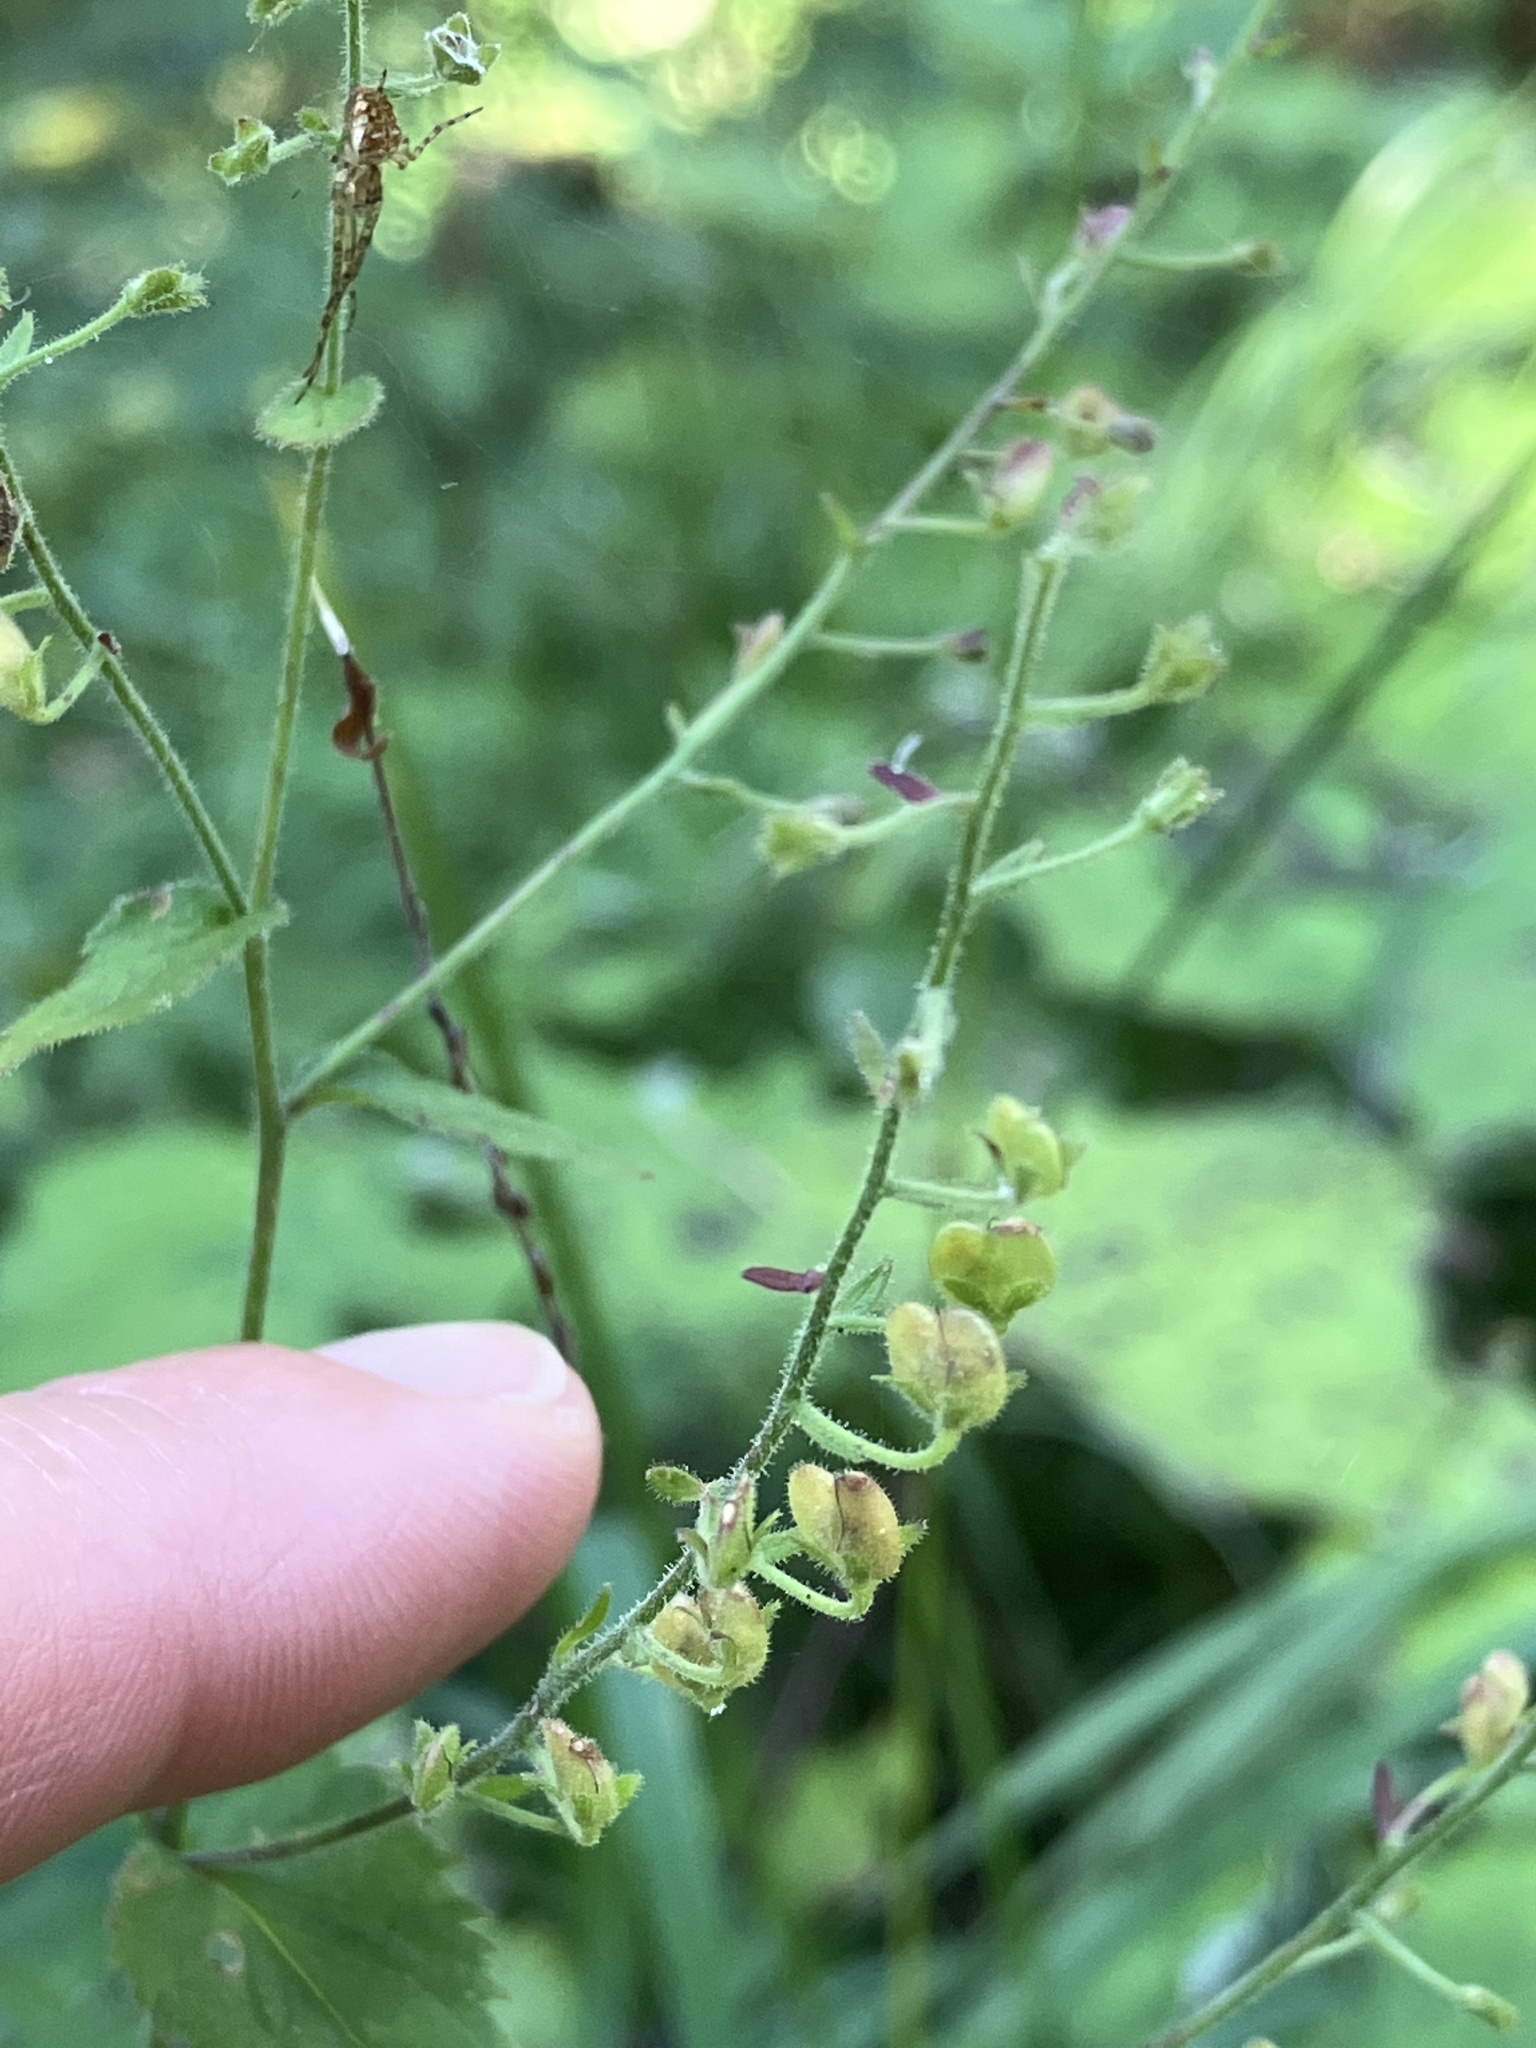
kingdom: Plantae
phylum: Tracheophyta
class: Magnoliopsida
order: Lamiales
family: Plantaginaceae
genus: Veronica
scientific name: Veronica urticifolia
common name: Nettle-leaf speedwell
